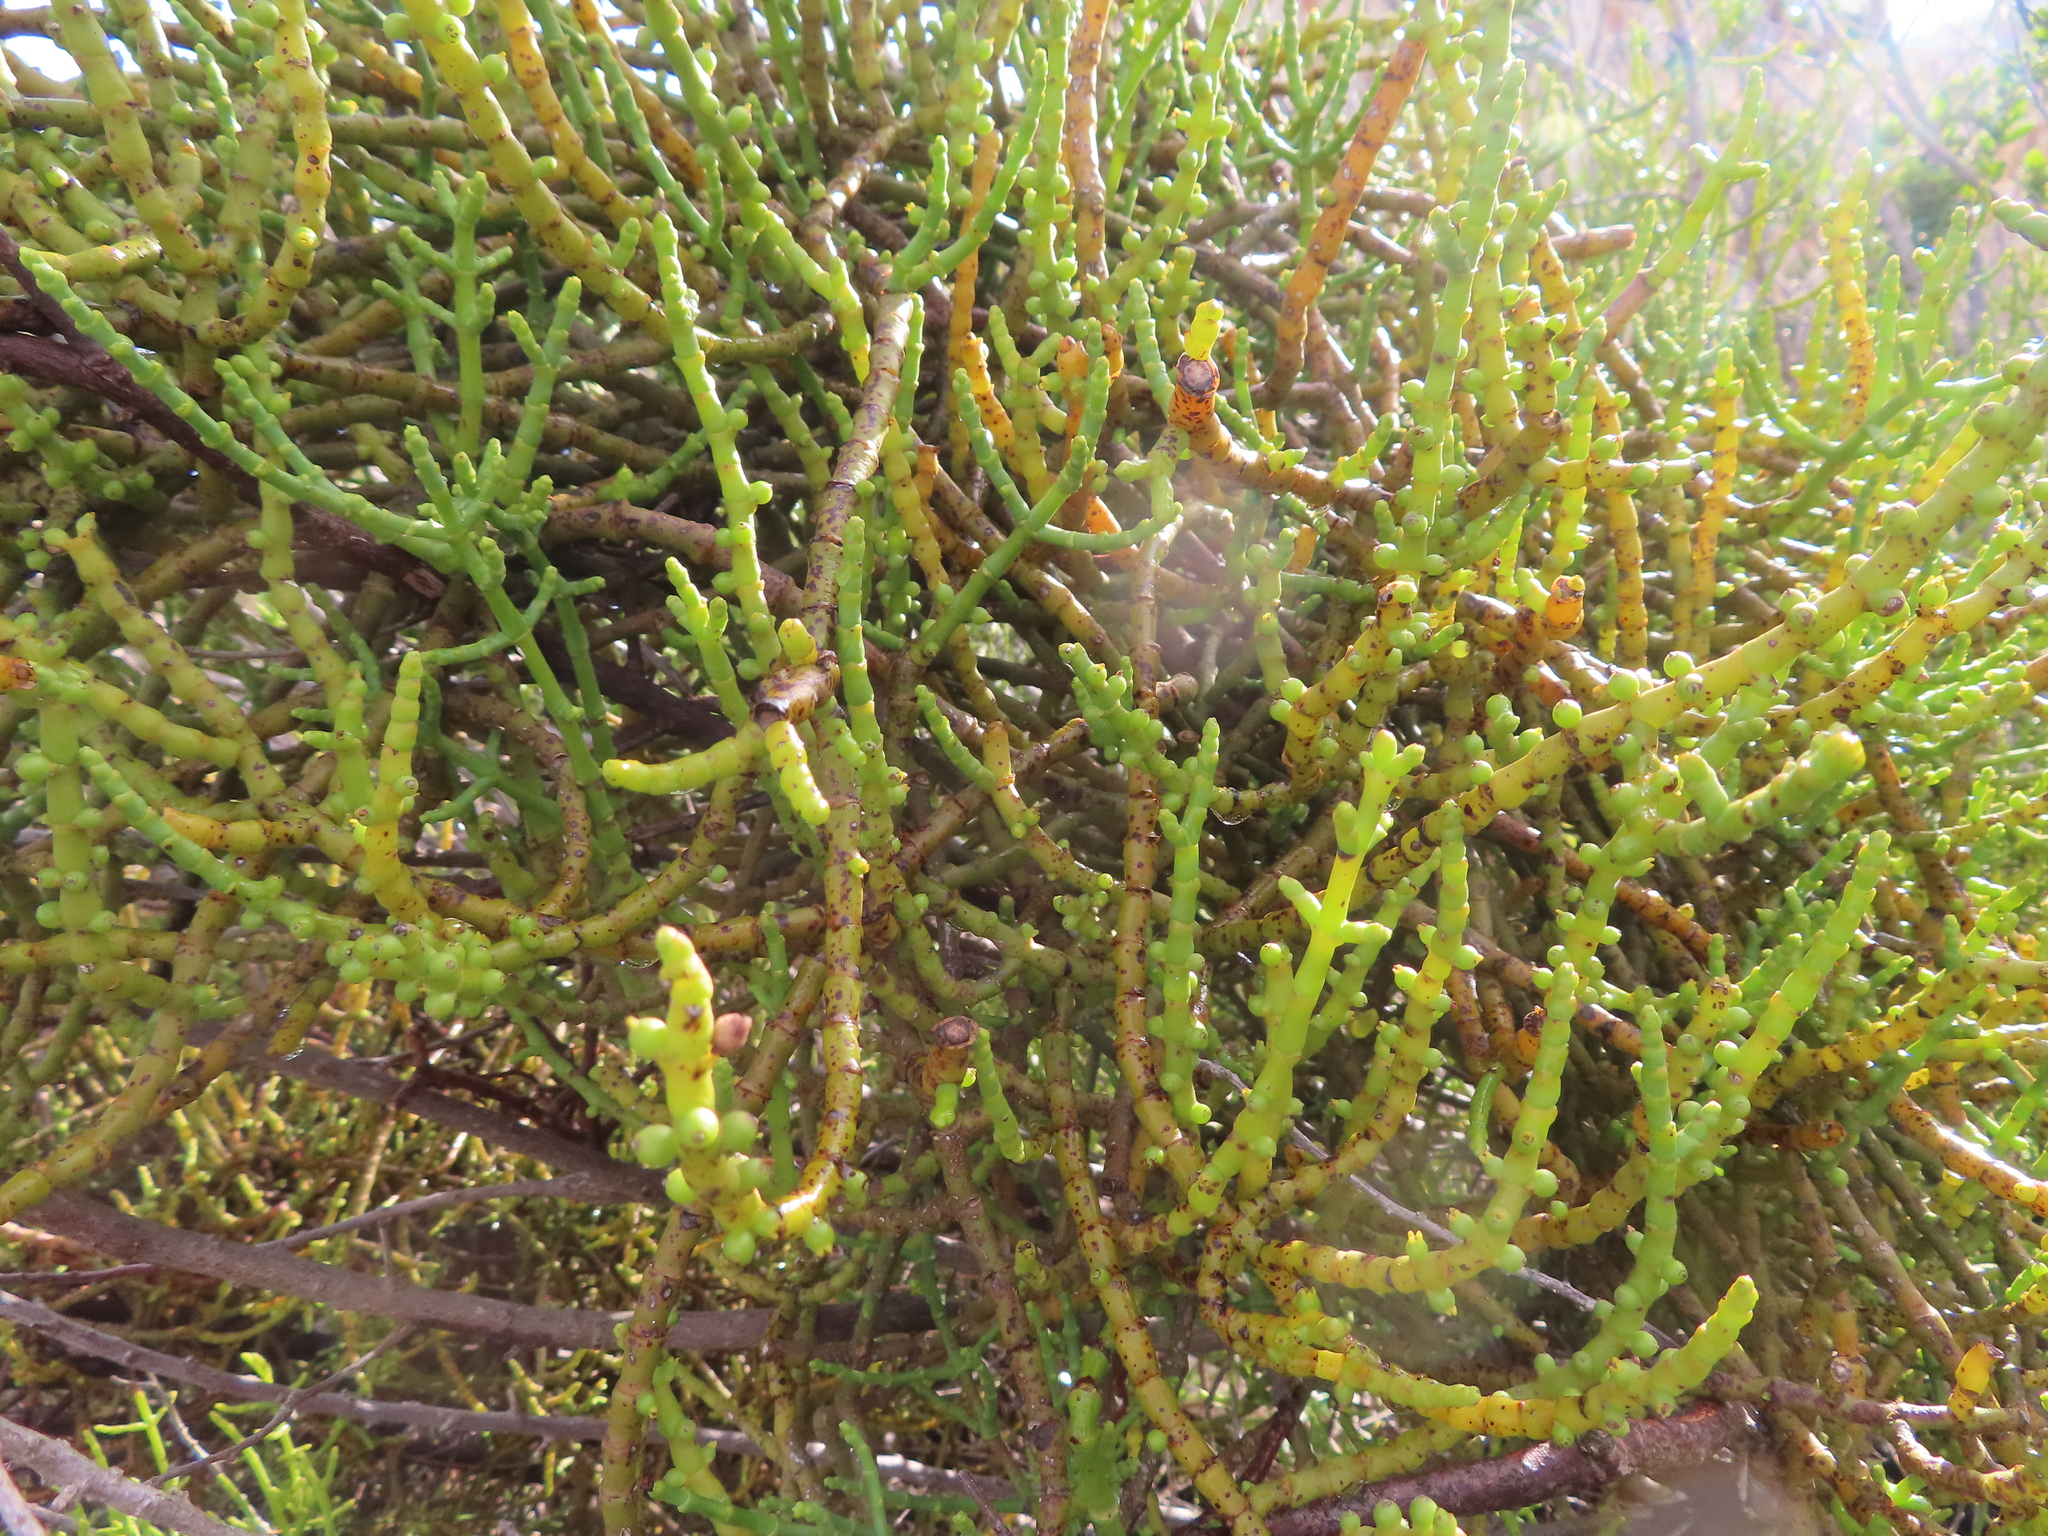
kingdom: Plantae
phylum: Tracheophyta
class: Magnoliopsida
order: Santalales
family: Viscaceae
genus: Viscum
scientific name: Viscum capense
